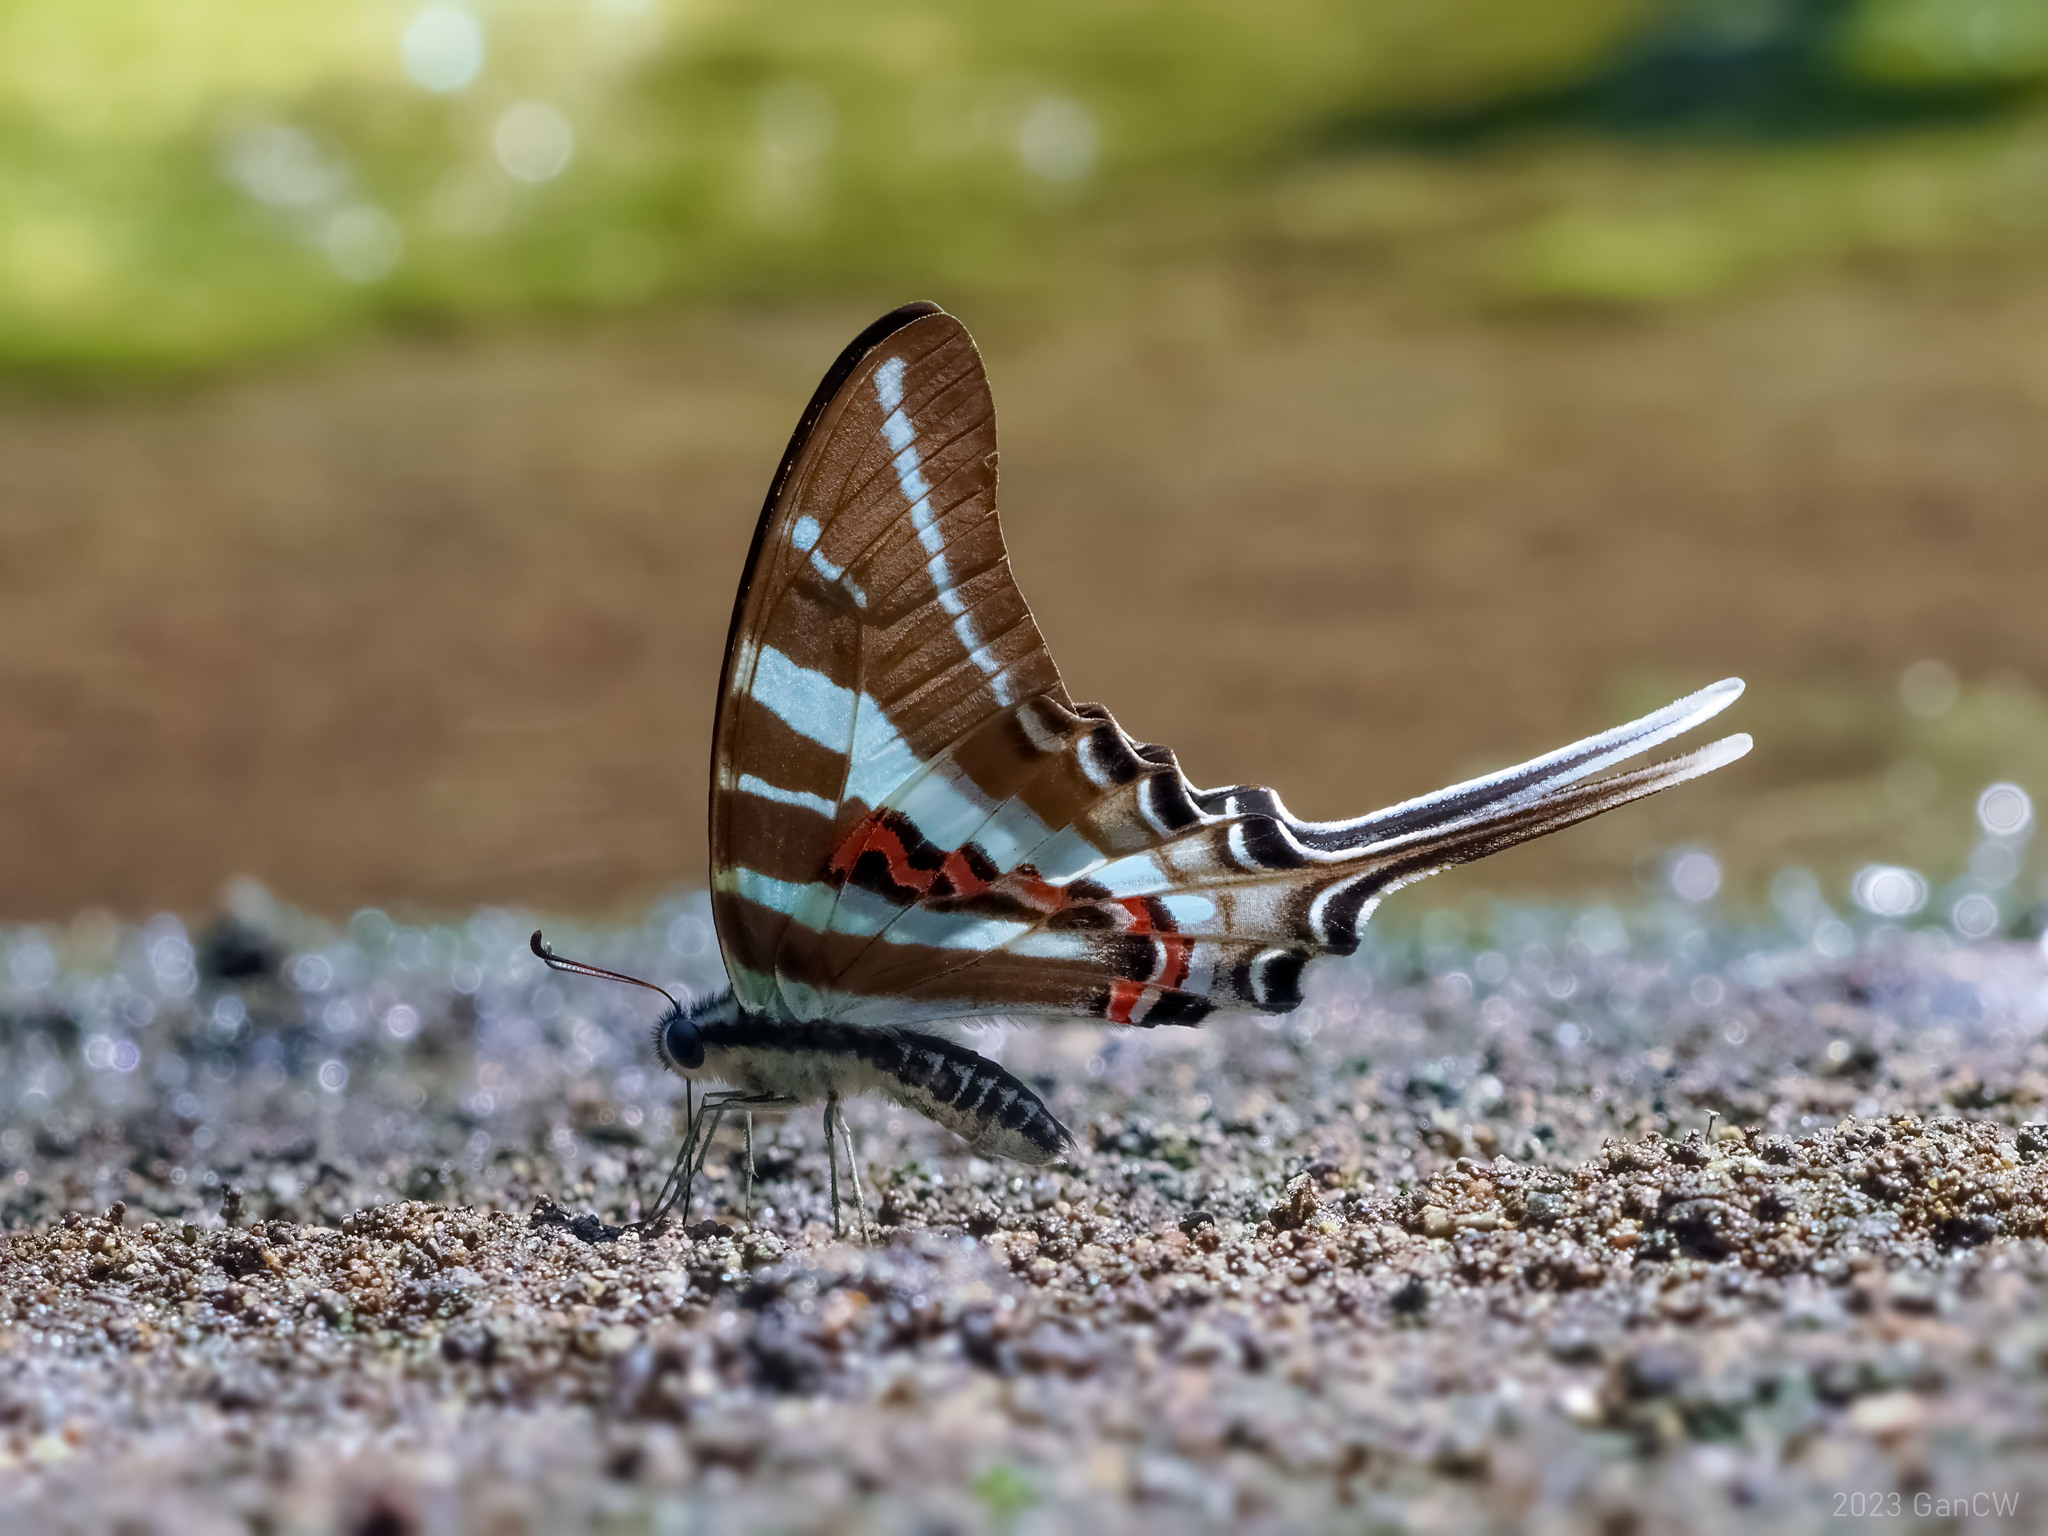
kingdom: Animalia
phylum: Arthropoda
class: Insecta
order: Lepidoptera
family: Papilionidae
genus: Graphium
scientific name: Graphium rhesus
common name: Monkey swordtail
